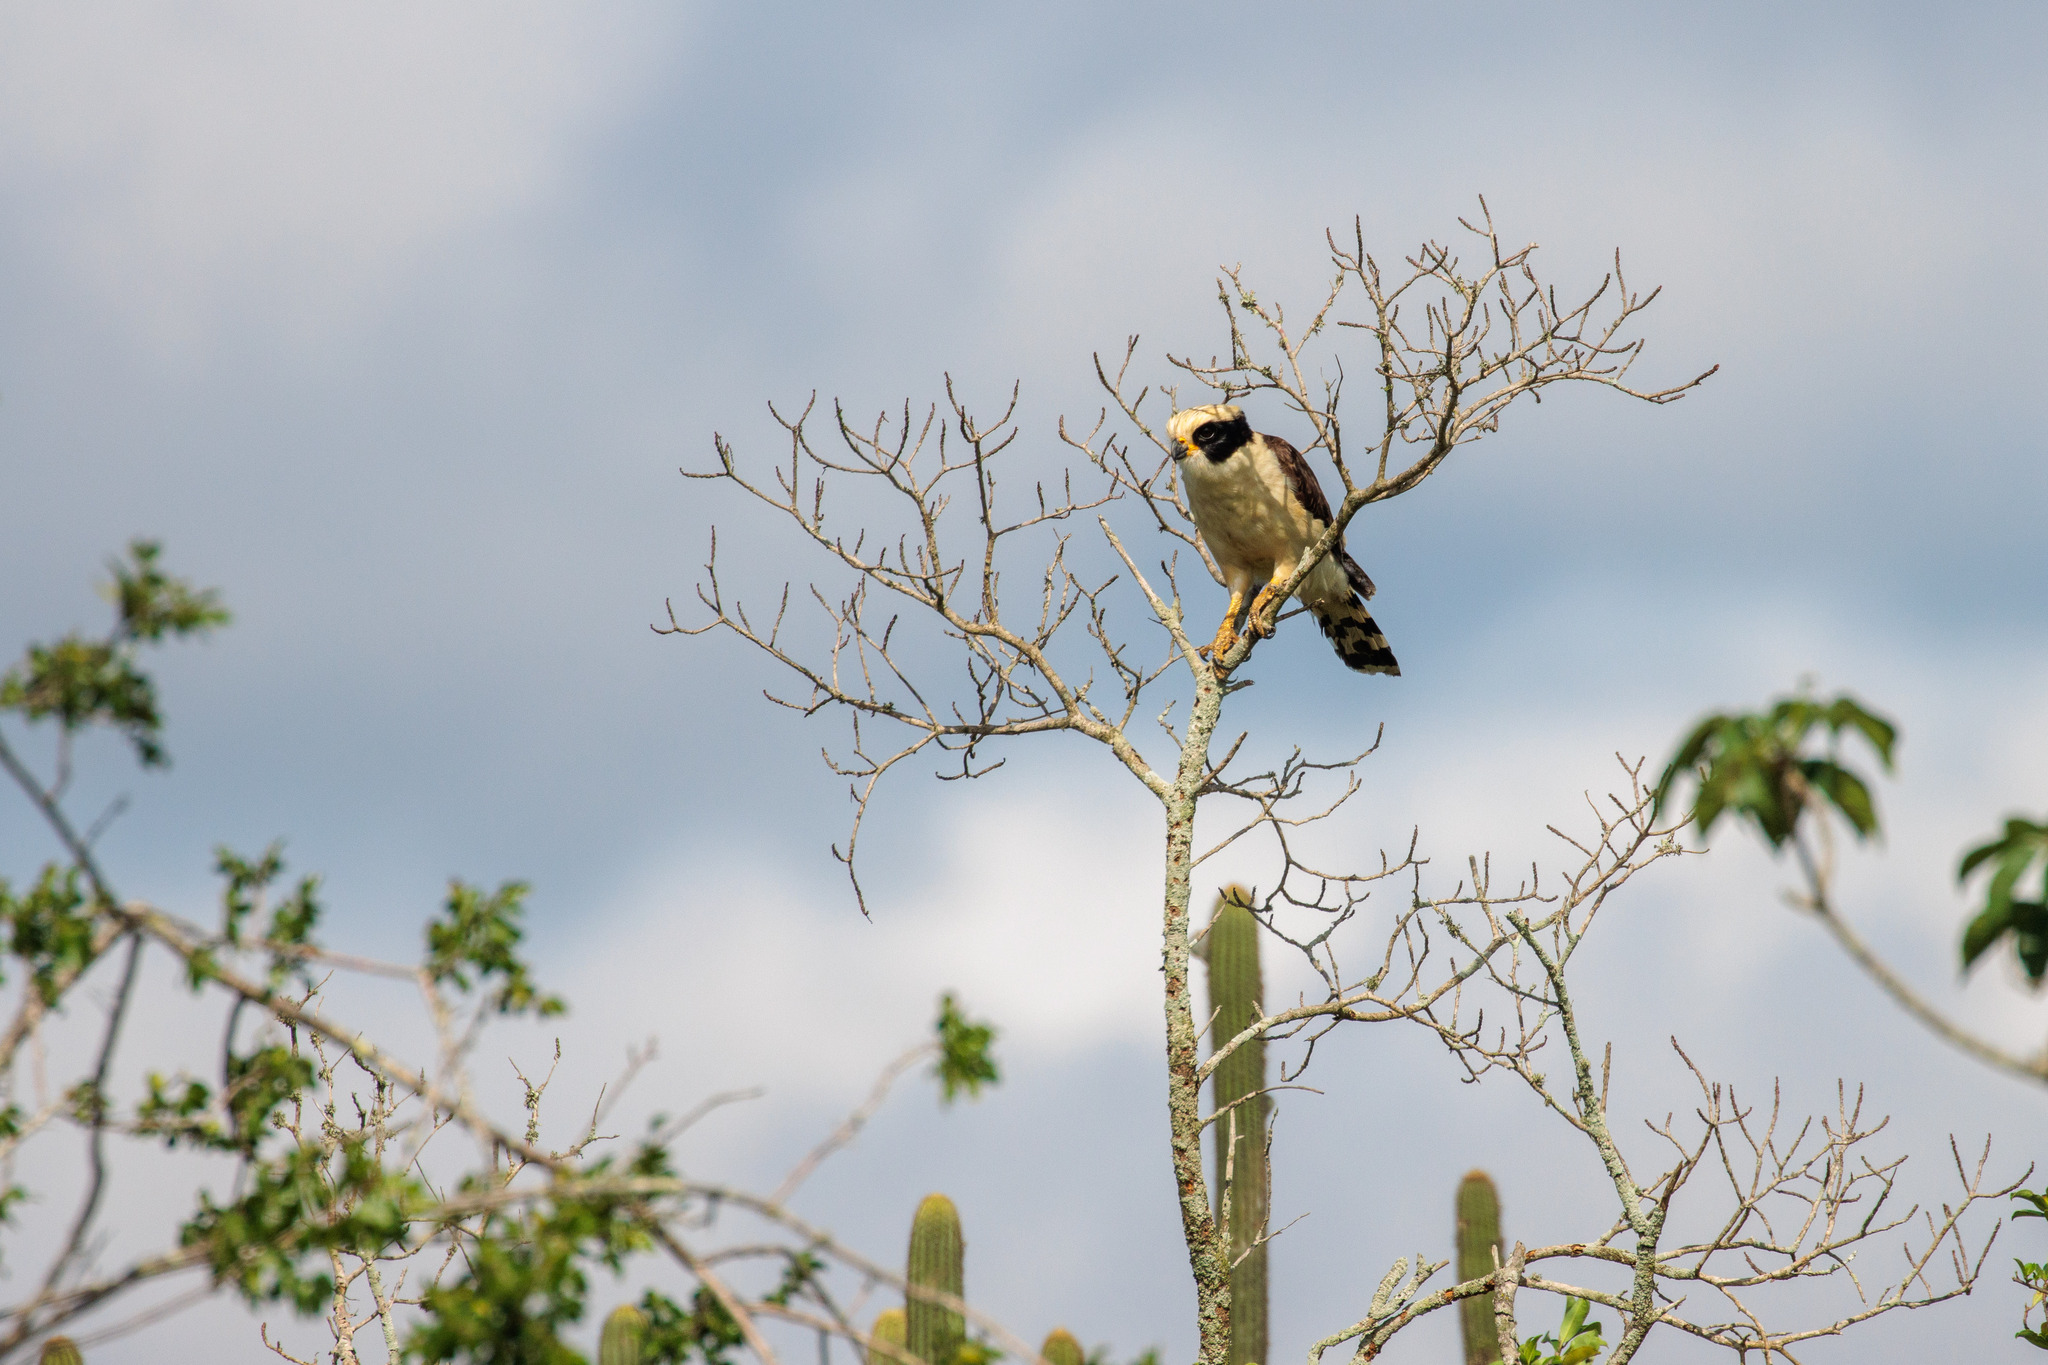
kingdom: Animalia
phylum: Chordata
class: Aves
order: Falconiformes
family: Falconidae
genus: Herpetotheres
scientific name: Herpetotheres cachinnans
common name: Laughing falcon
